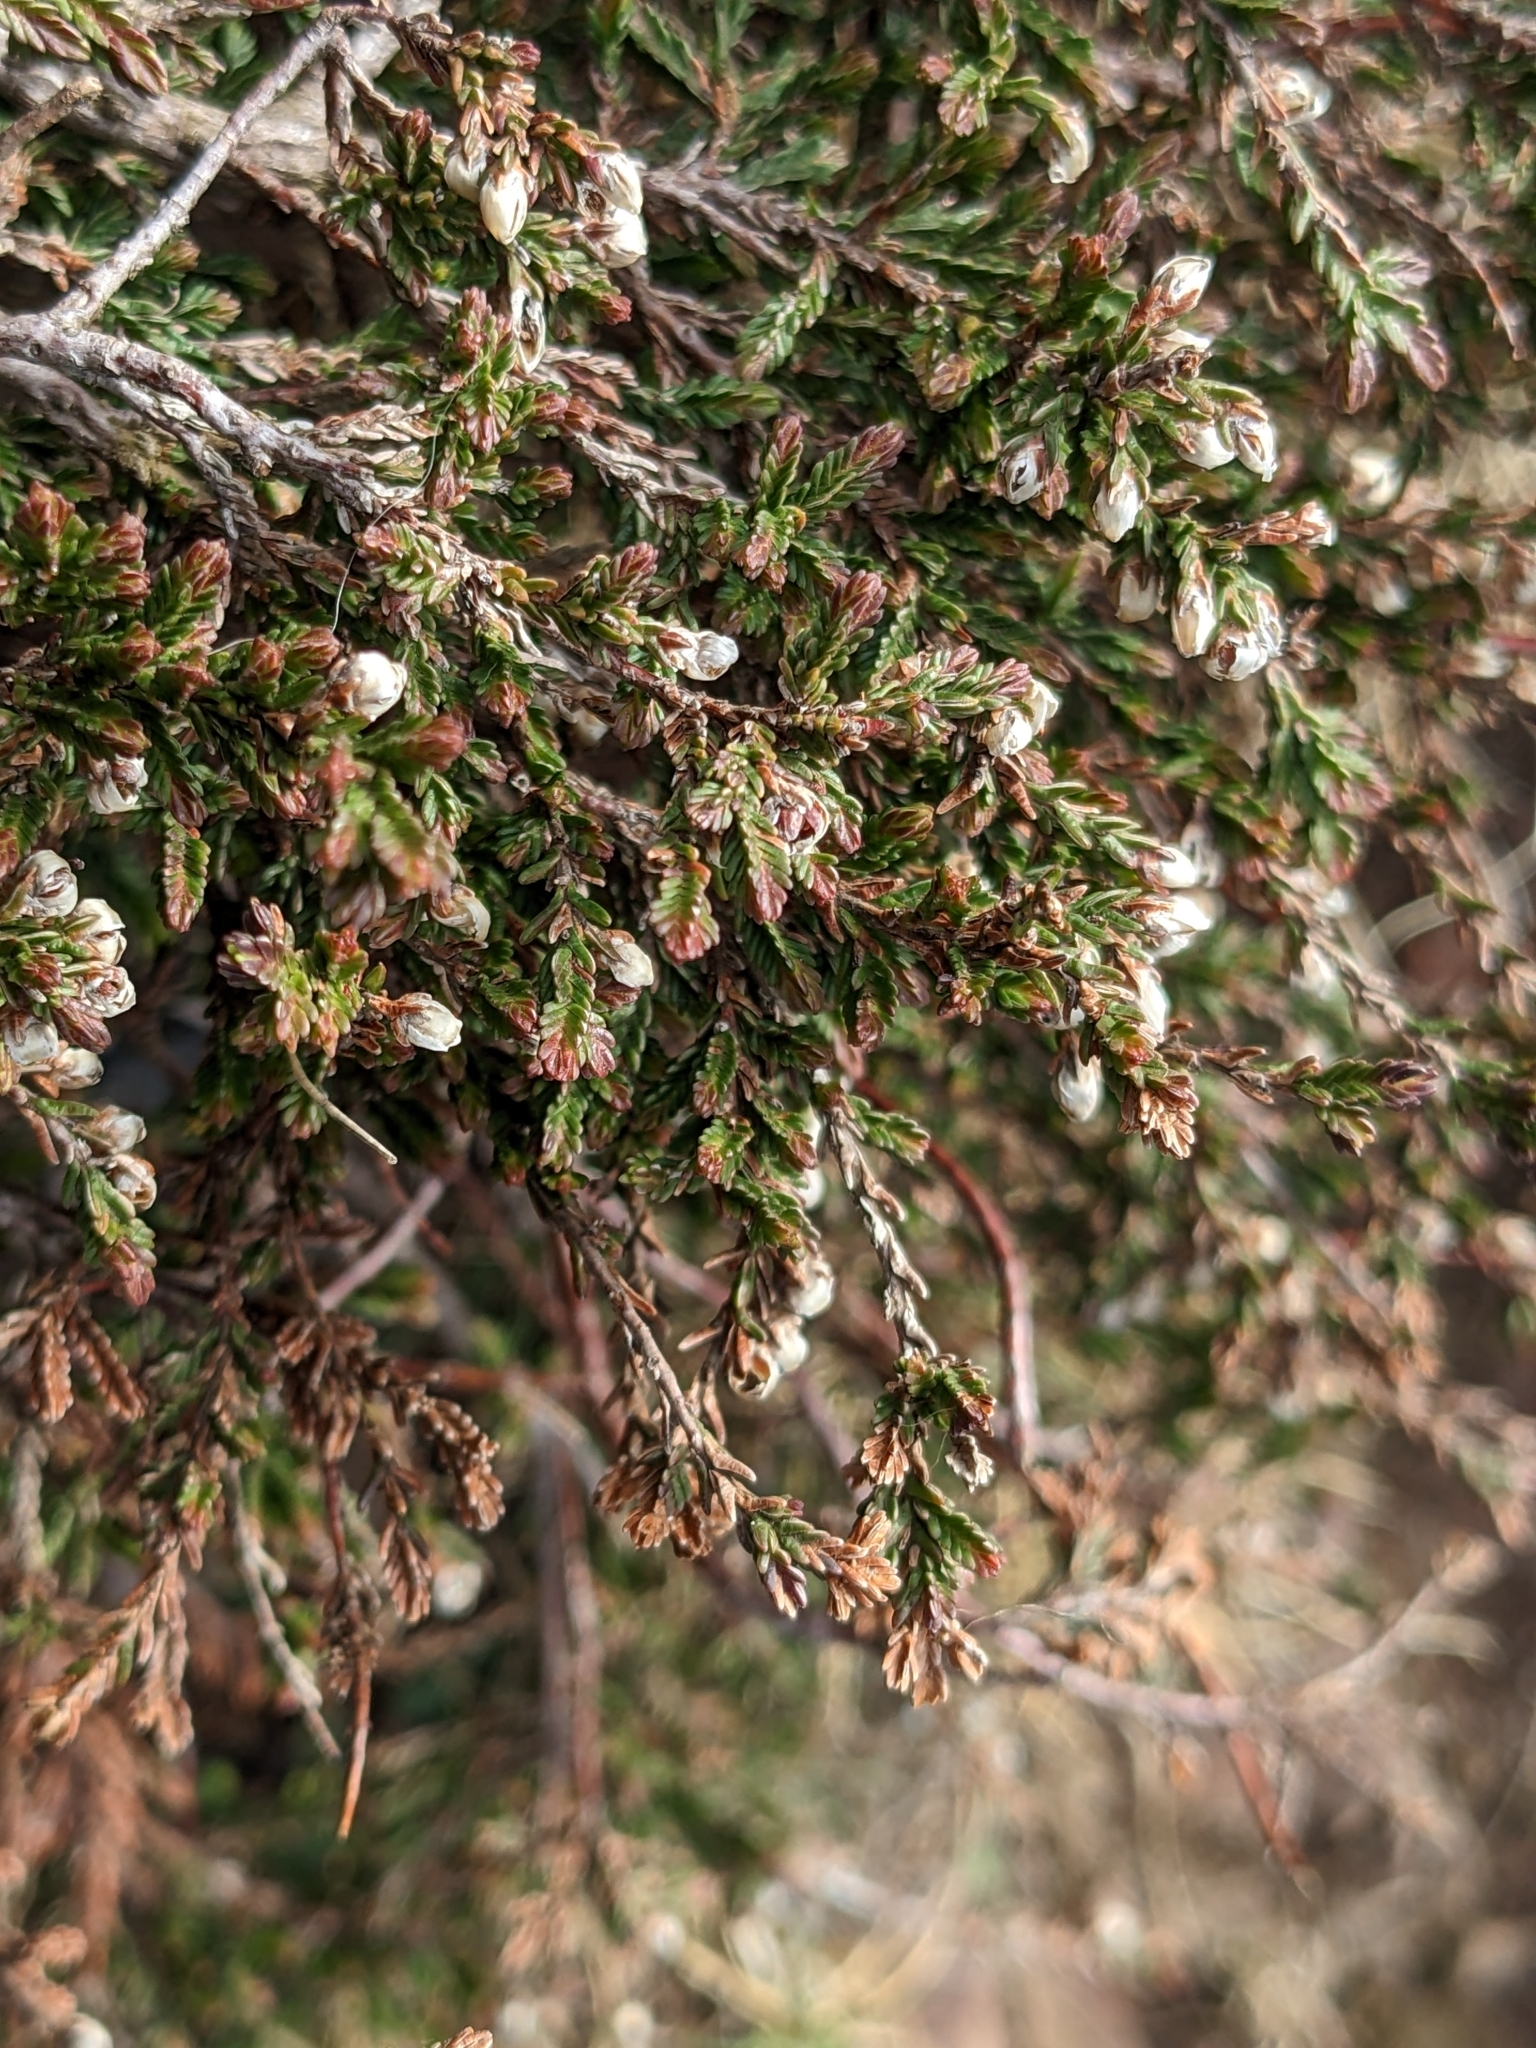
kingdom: Plantae
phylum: Tracheophyta
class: Magnoliopsida
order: Ericales
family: Ericaceae
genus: Calluna
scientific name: Calluna vulgaris
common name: Heather
